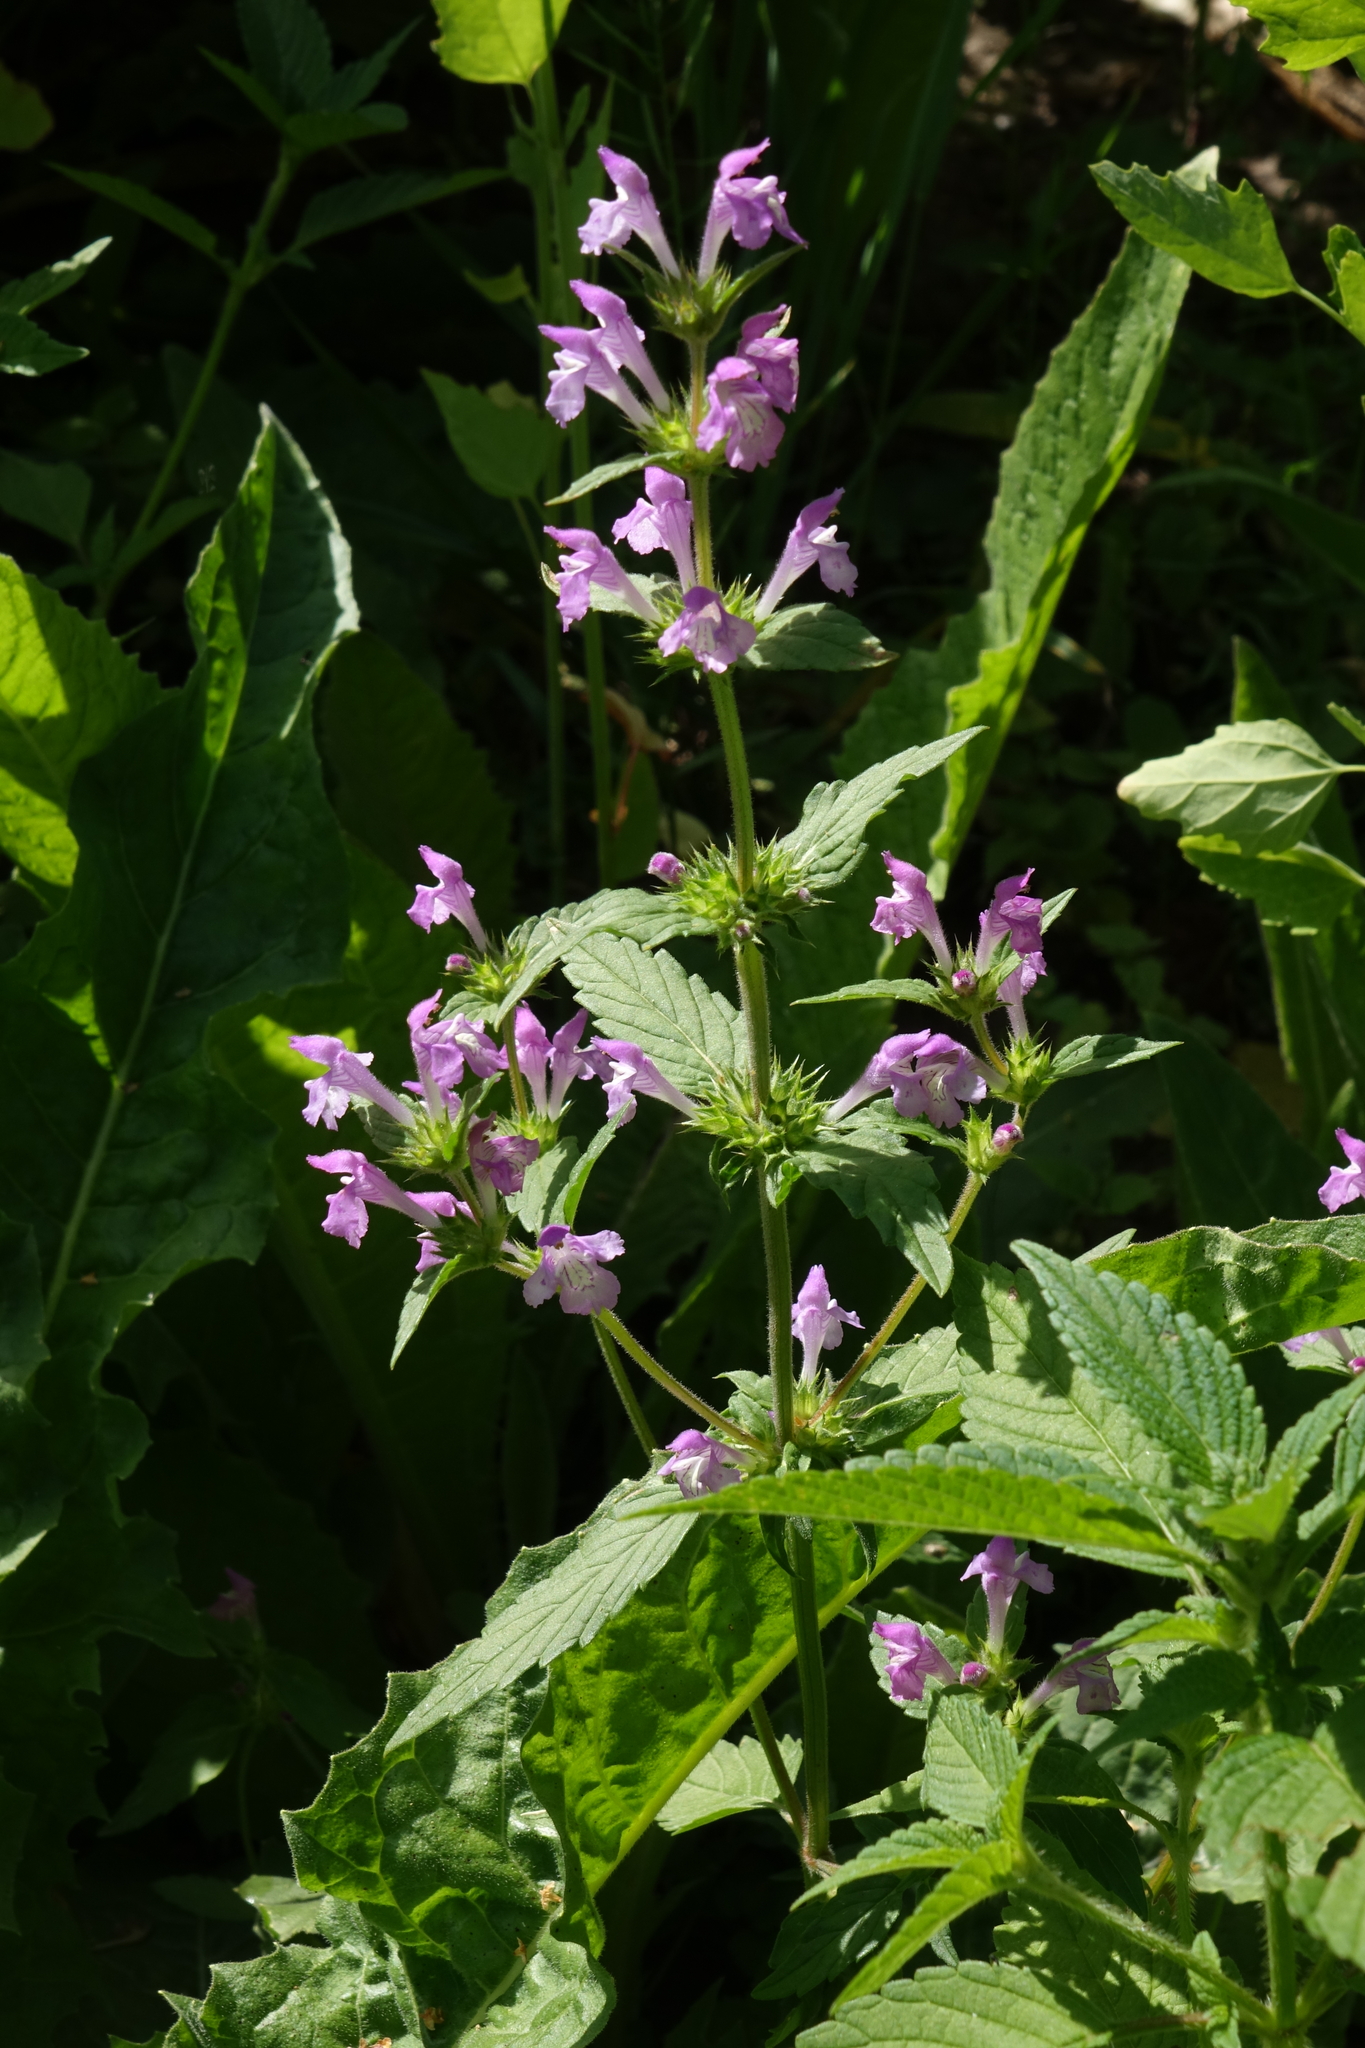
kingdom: Plantae
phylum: Tracheophyta
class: Magnoliopsida
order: Lamiales
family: Lamiaceae
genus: Galeopsis
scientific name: Galeopsis ladanum
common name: Broad-leaved hemp-nettle
